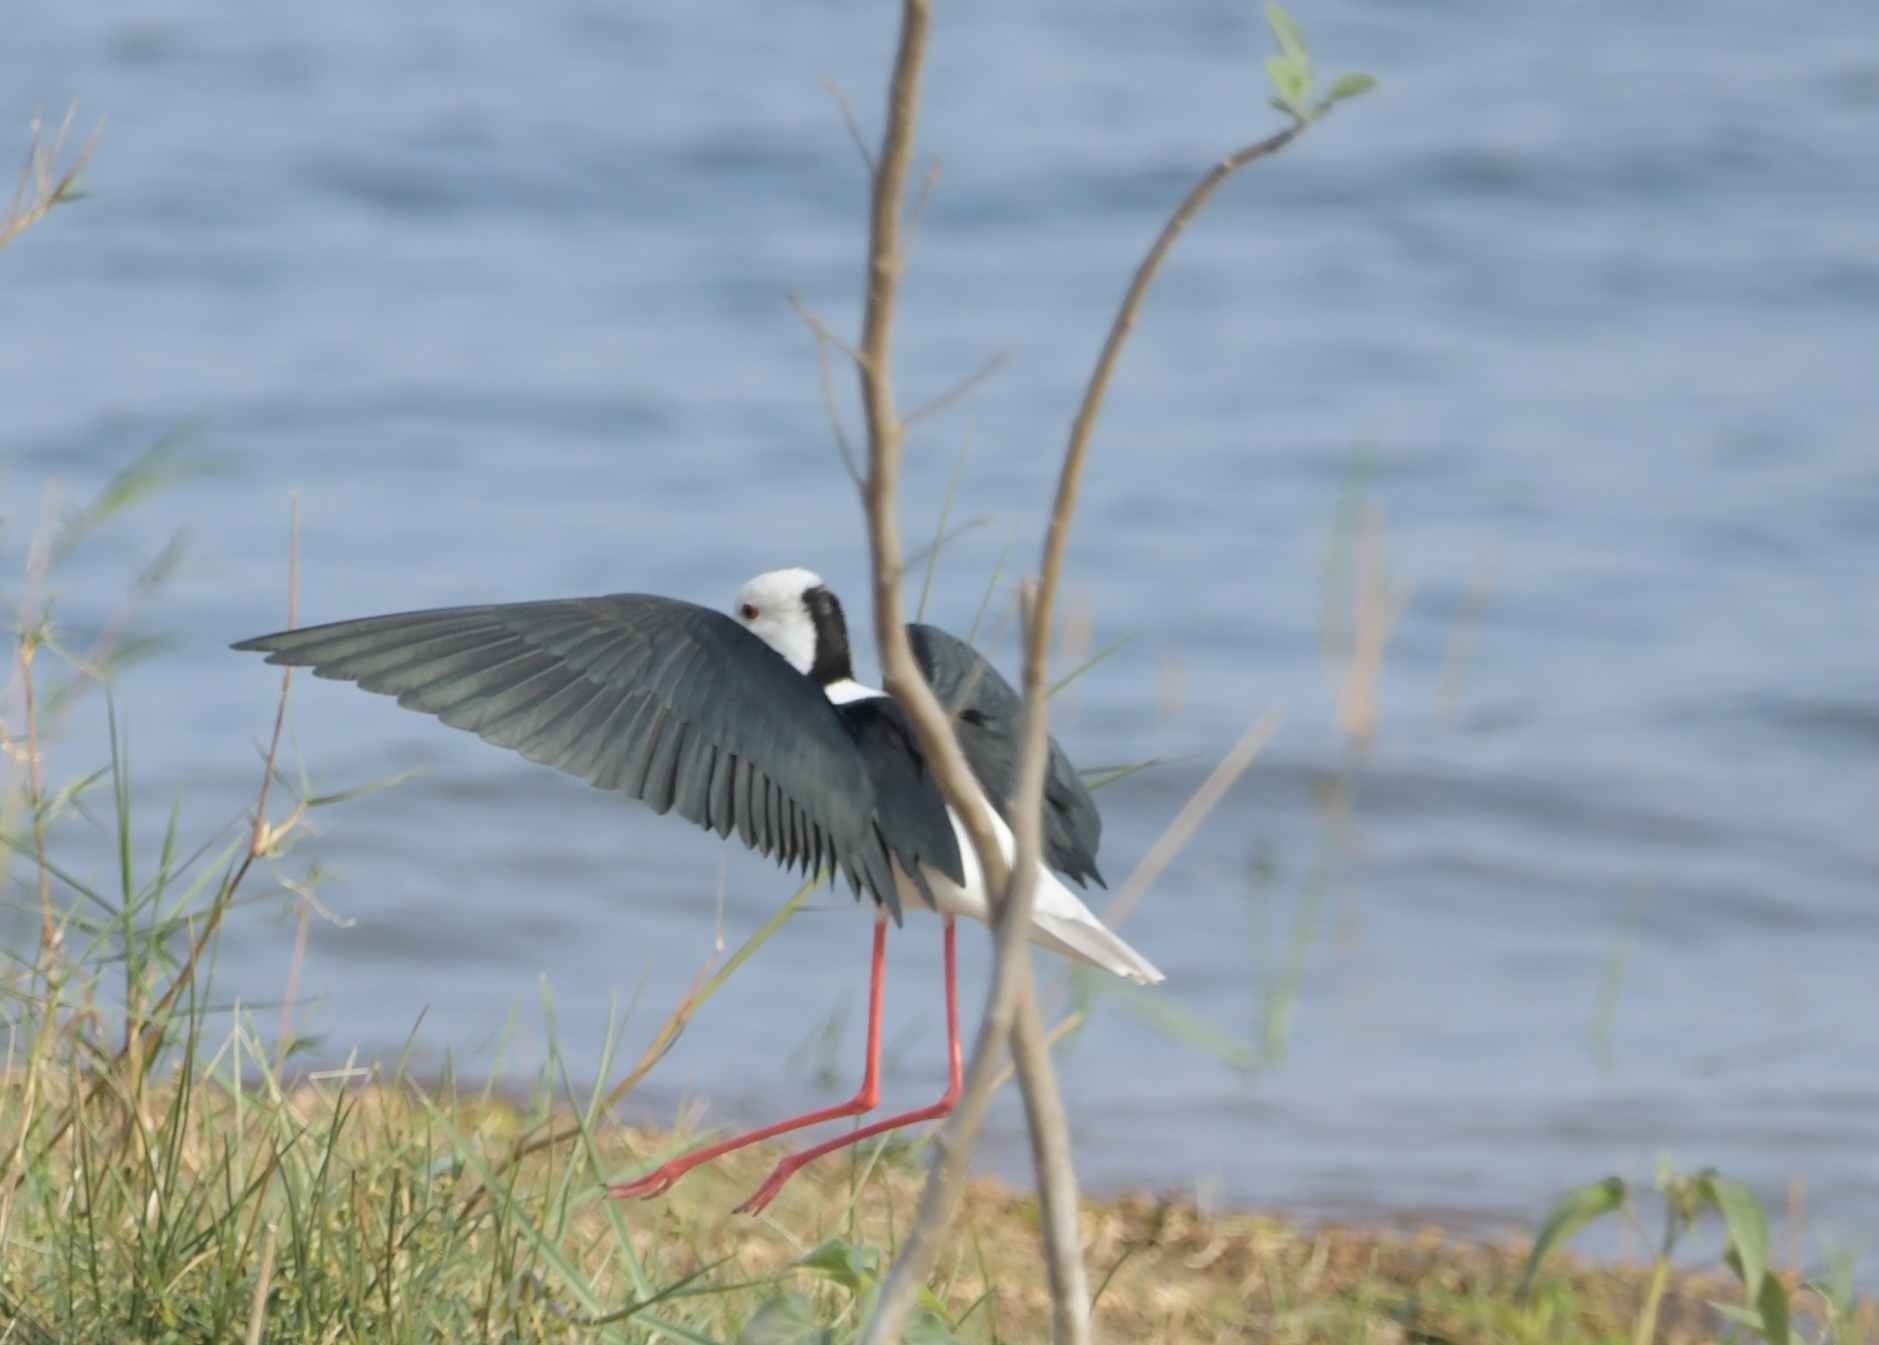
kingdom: Animalia
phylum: Chordata
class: Aves
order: Charadriiformes
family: Recurvirostridae
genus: Himantopus
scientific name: Himantopus himantopus
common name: Black-winged stilt
